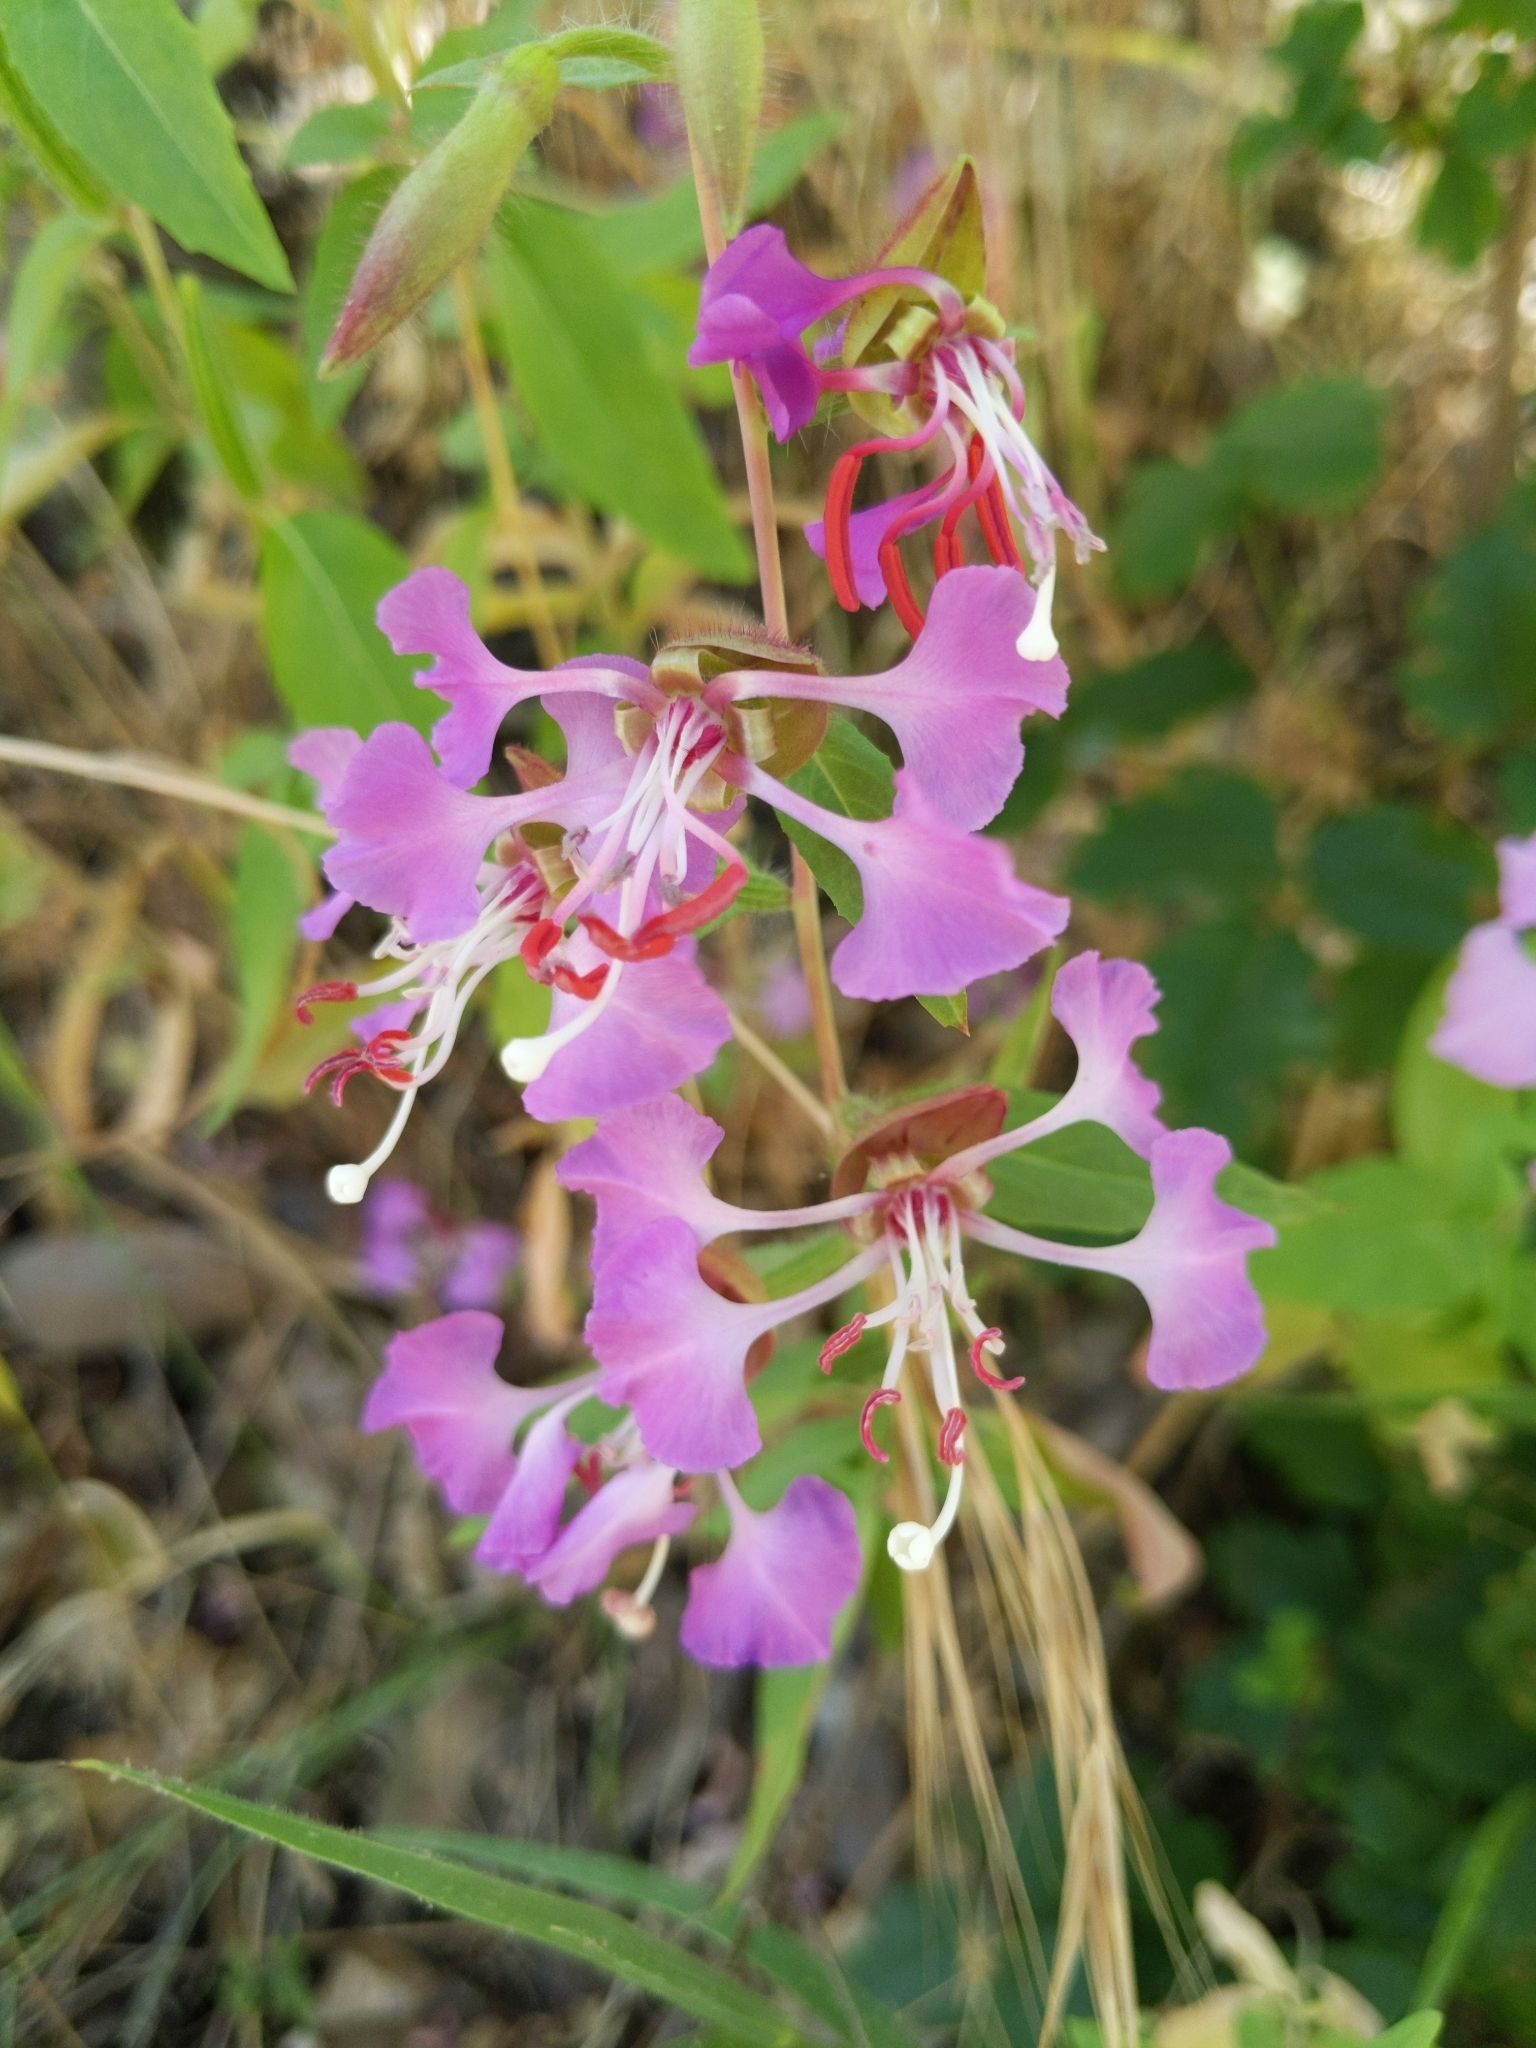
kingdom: Plantae
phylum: Tracheophyta
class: Magnoliopsida
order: Myrtales
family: Onagraceae
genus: Clarkia
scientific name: Clarkia unguiculata
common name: Clarkia
